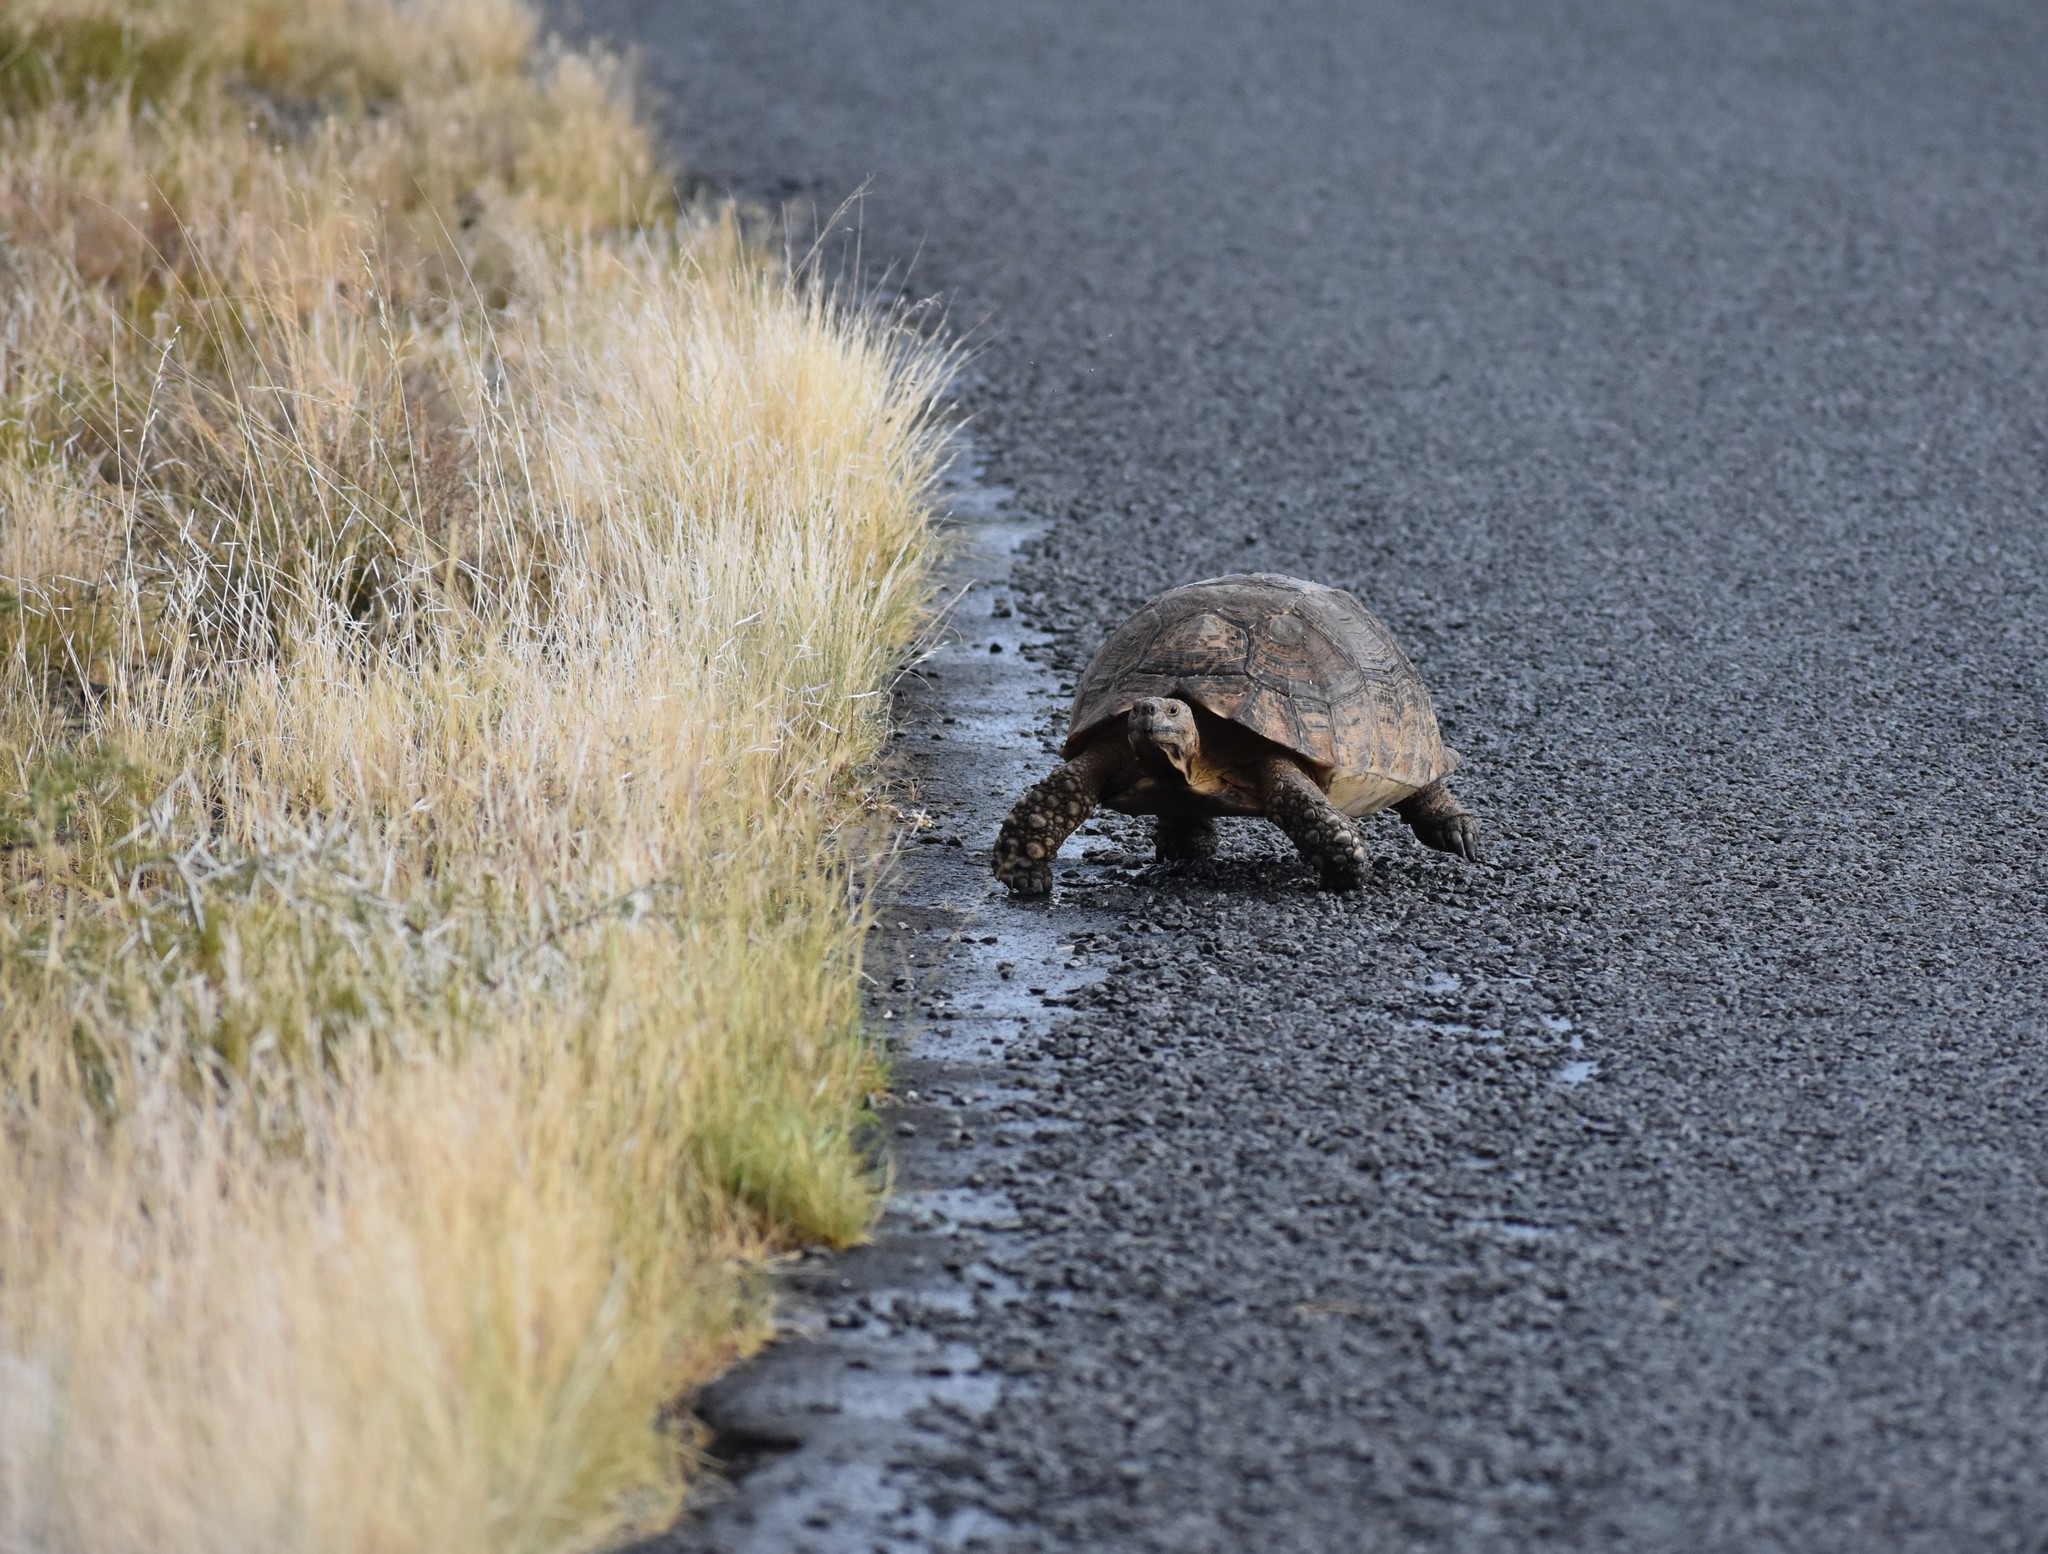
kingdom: Animalia
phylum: Chordata
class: Testudines
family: Testudinidae
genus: Stigmochelys
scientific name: Stigmochelys pardalis
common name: Leopard tortoise
